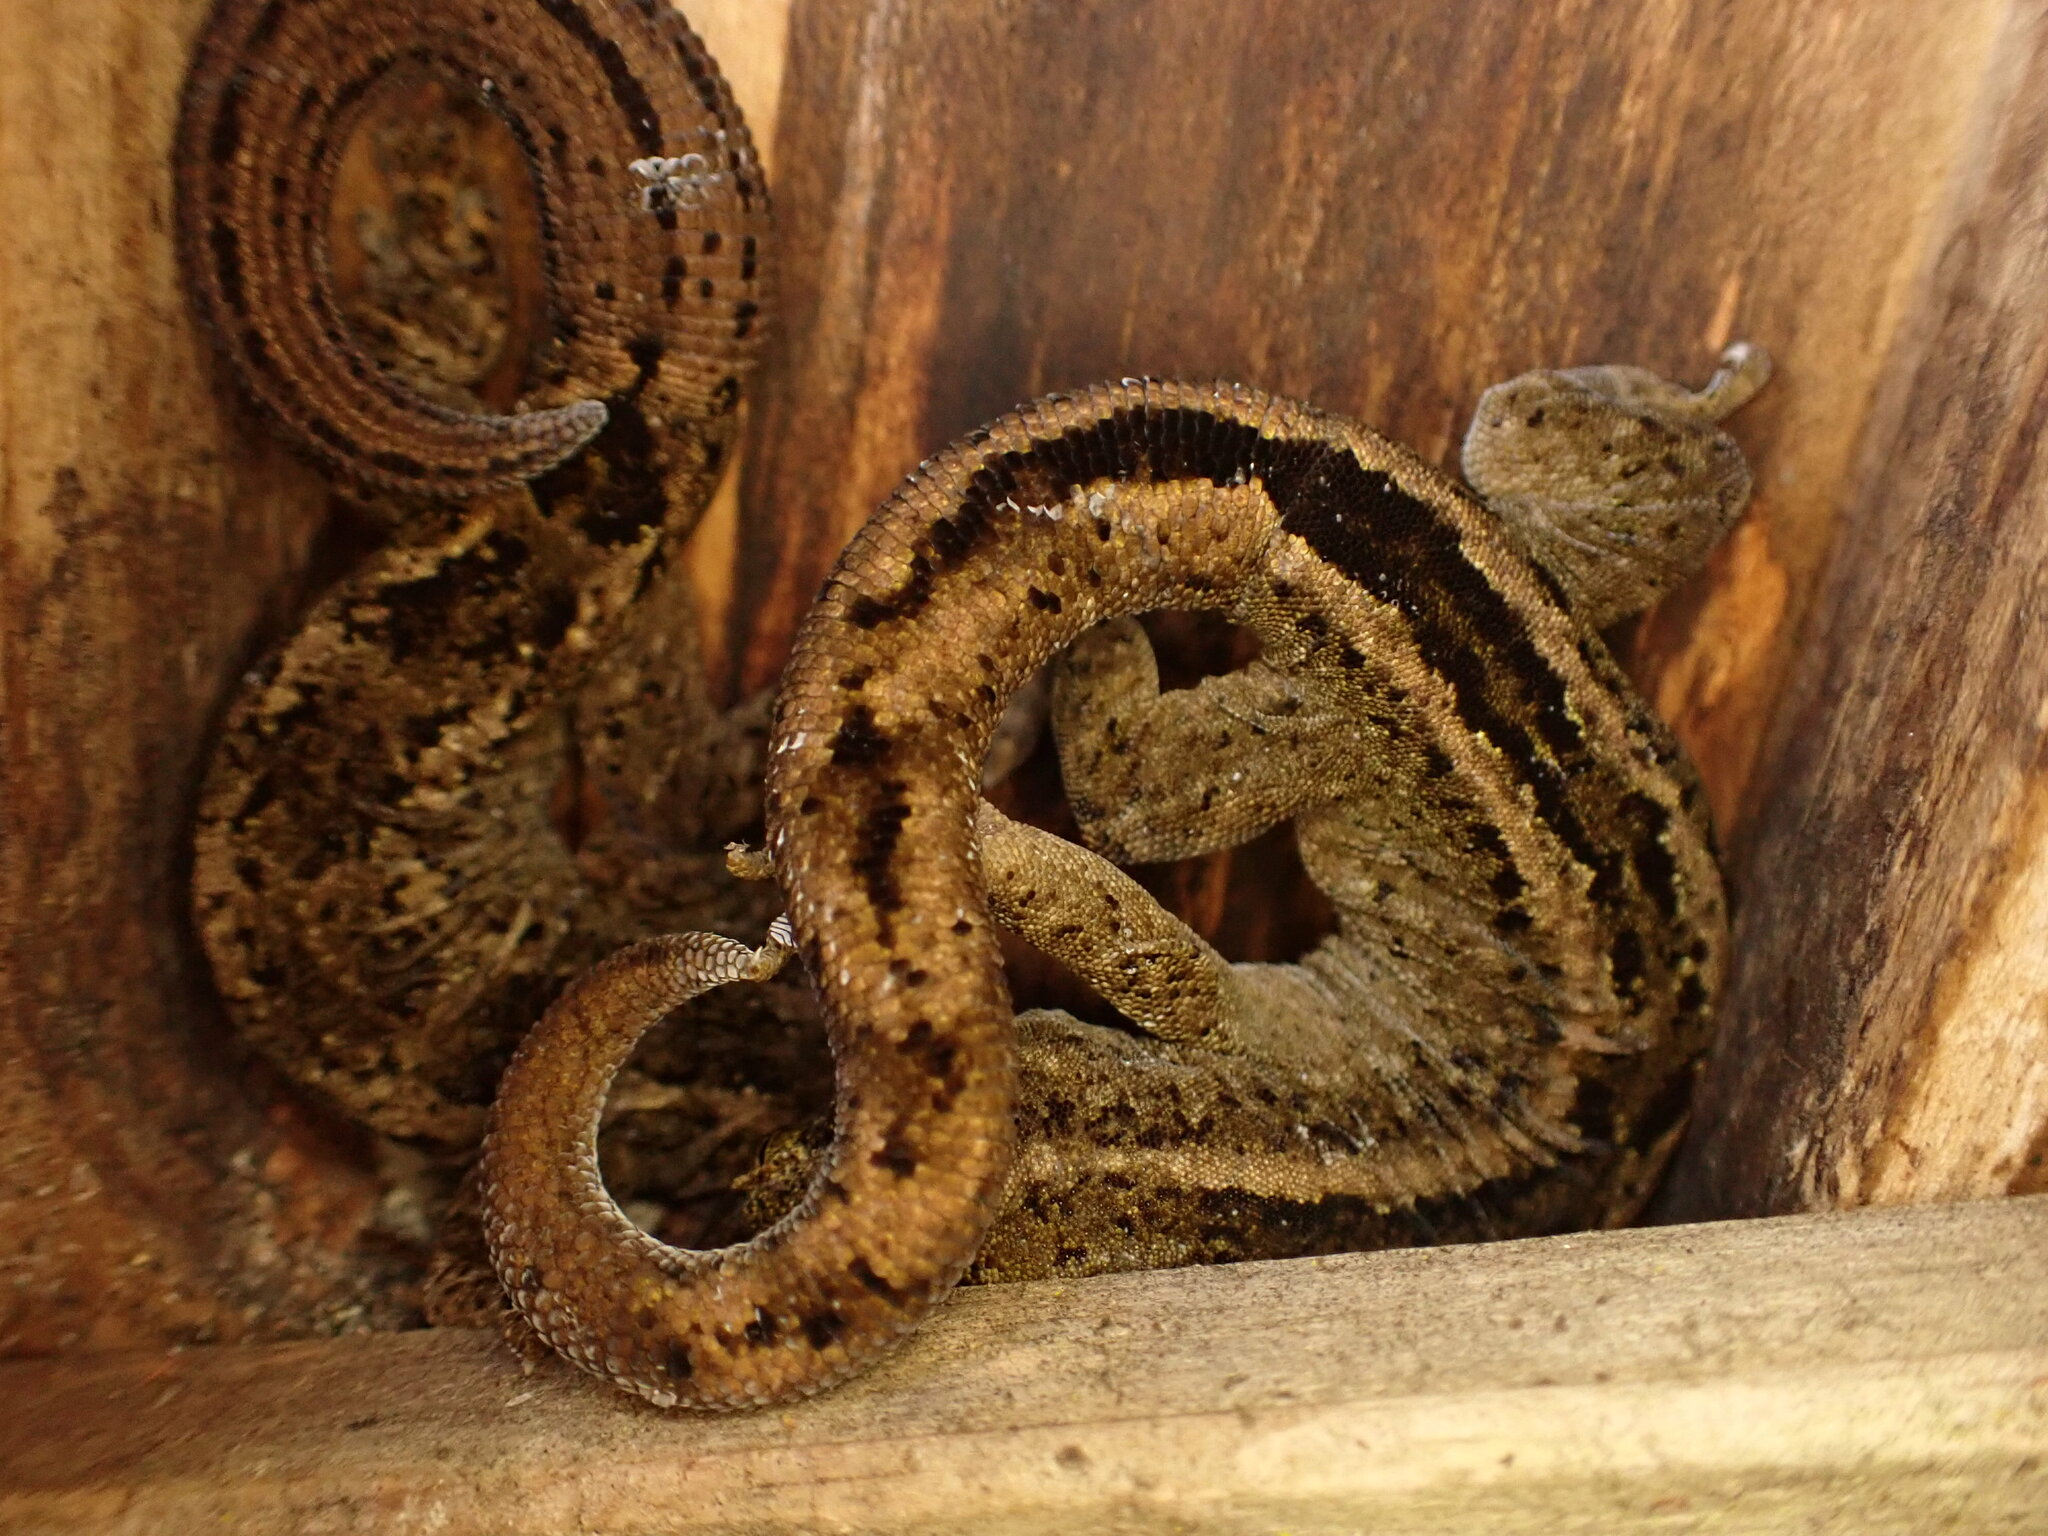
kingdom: Animalia
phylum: Chordata
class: Squamata
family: Diplodactylidae
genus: Woodworthia
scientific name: Woodworthia brunnea
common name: Canterbury gecko
